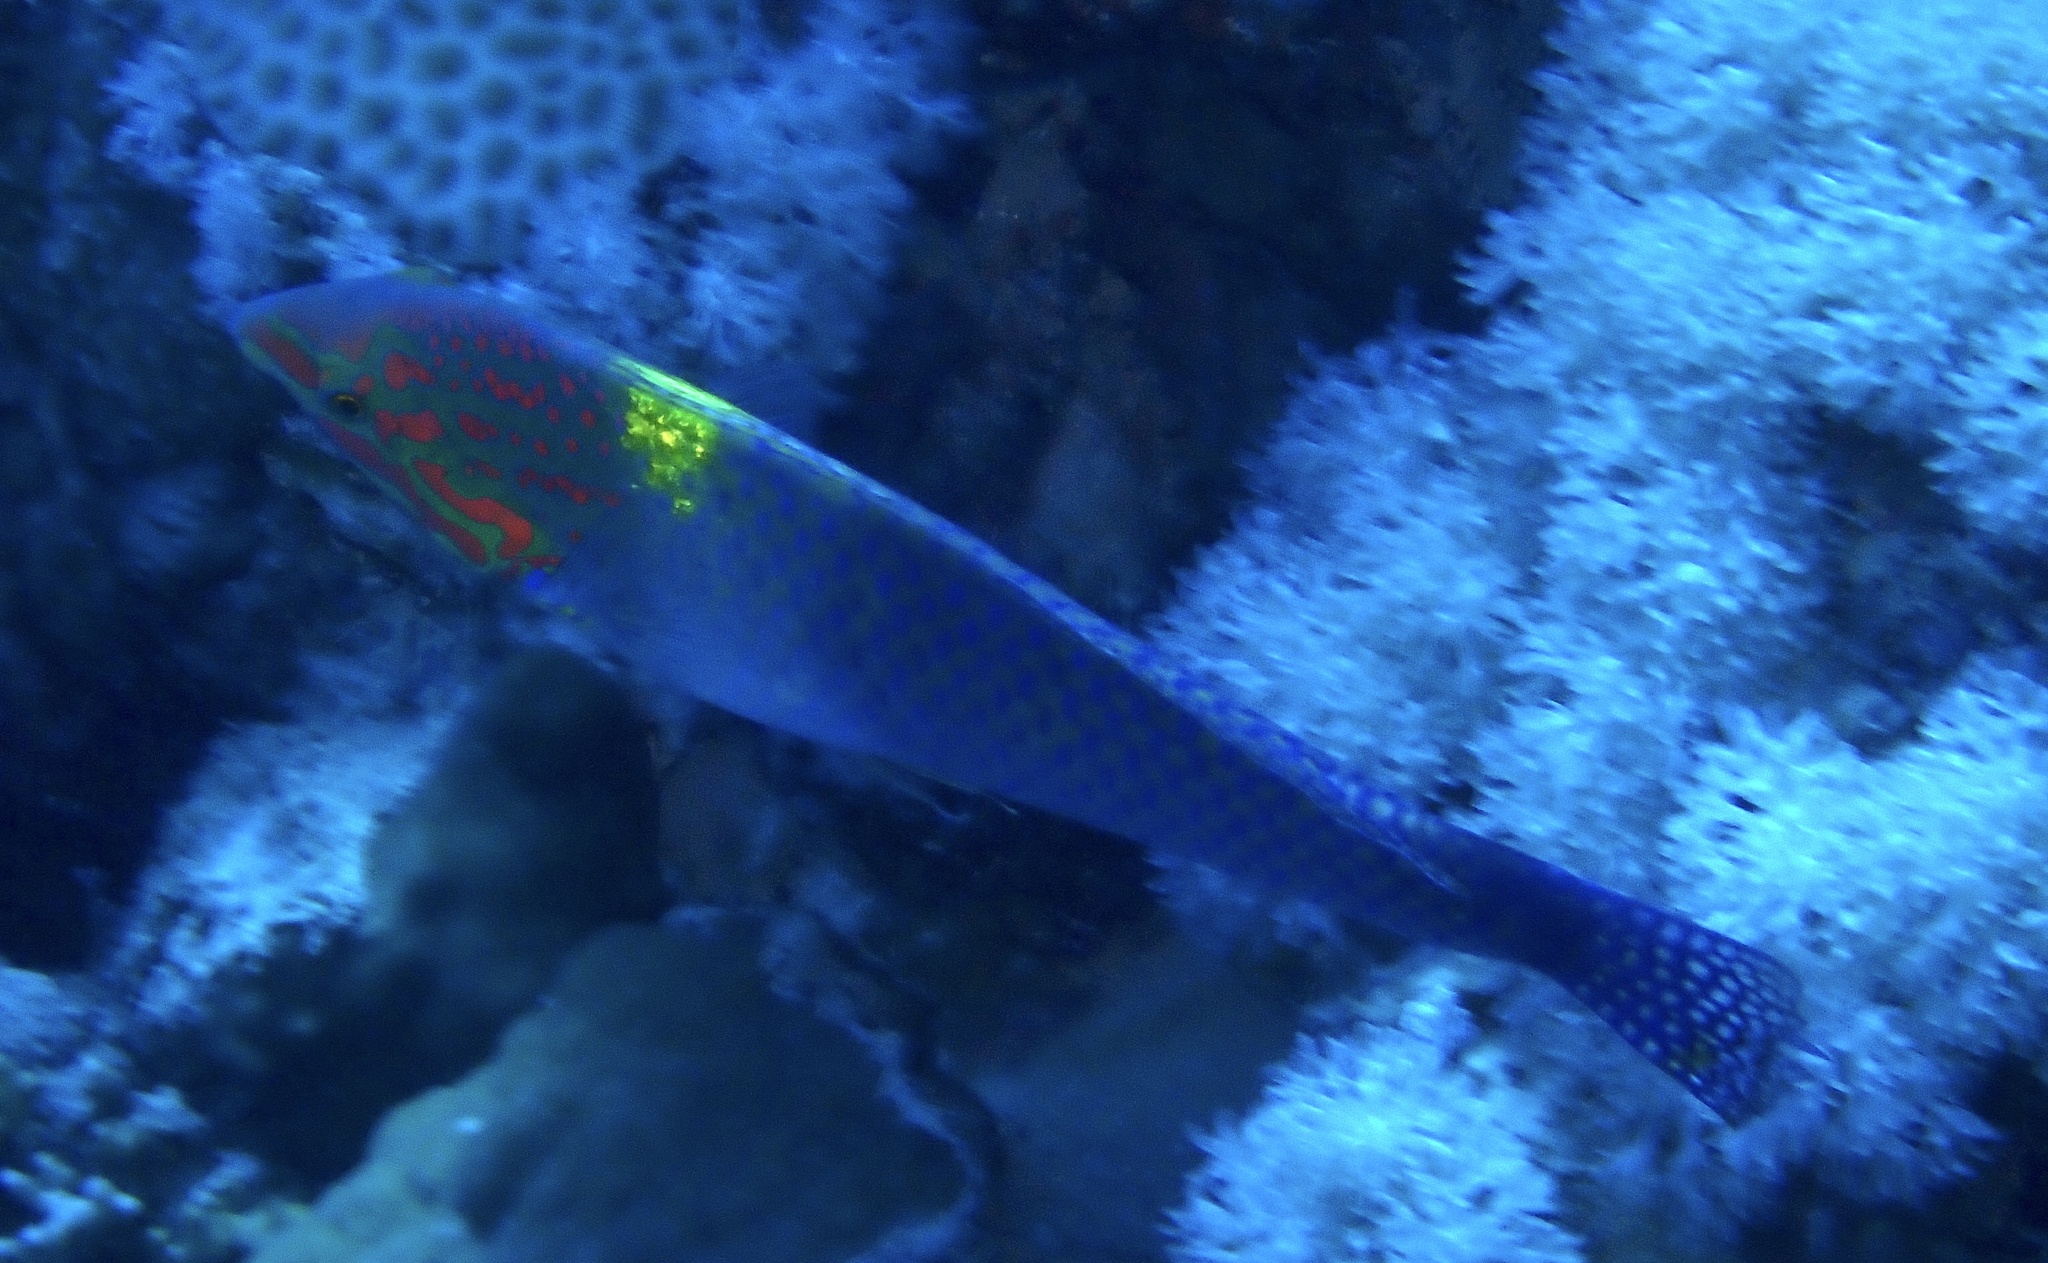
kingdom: Animalia
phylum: Chordata
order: Perciformes
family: Labridae
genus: Halichoeres
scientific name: Halichoeres hortulanus
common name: Checkerboard wrasse
